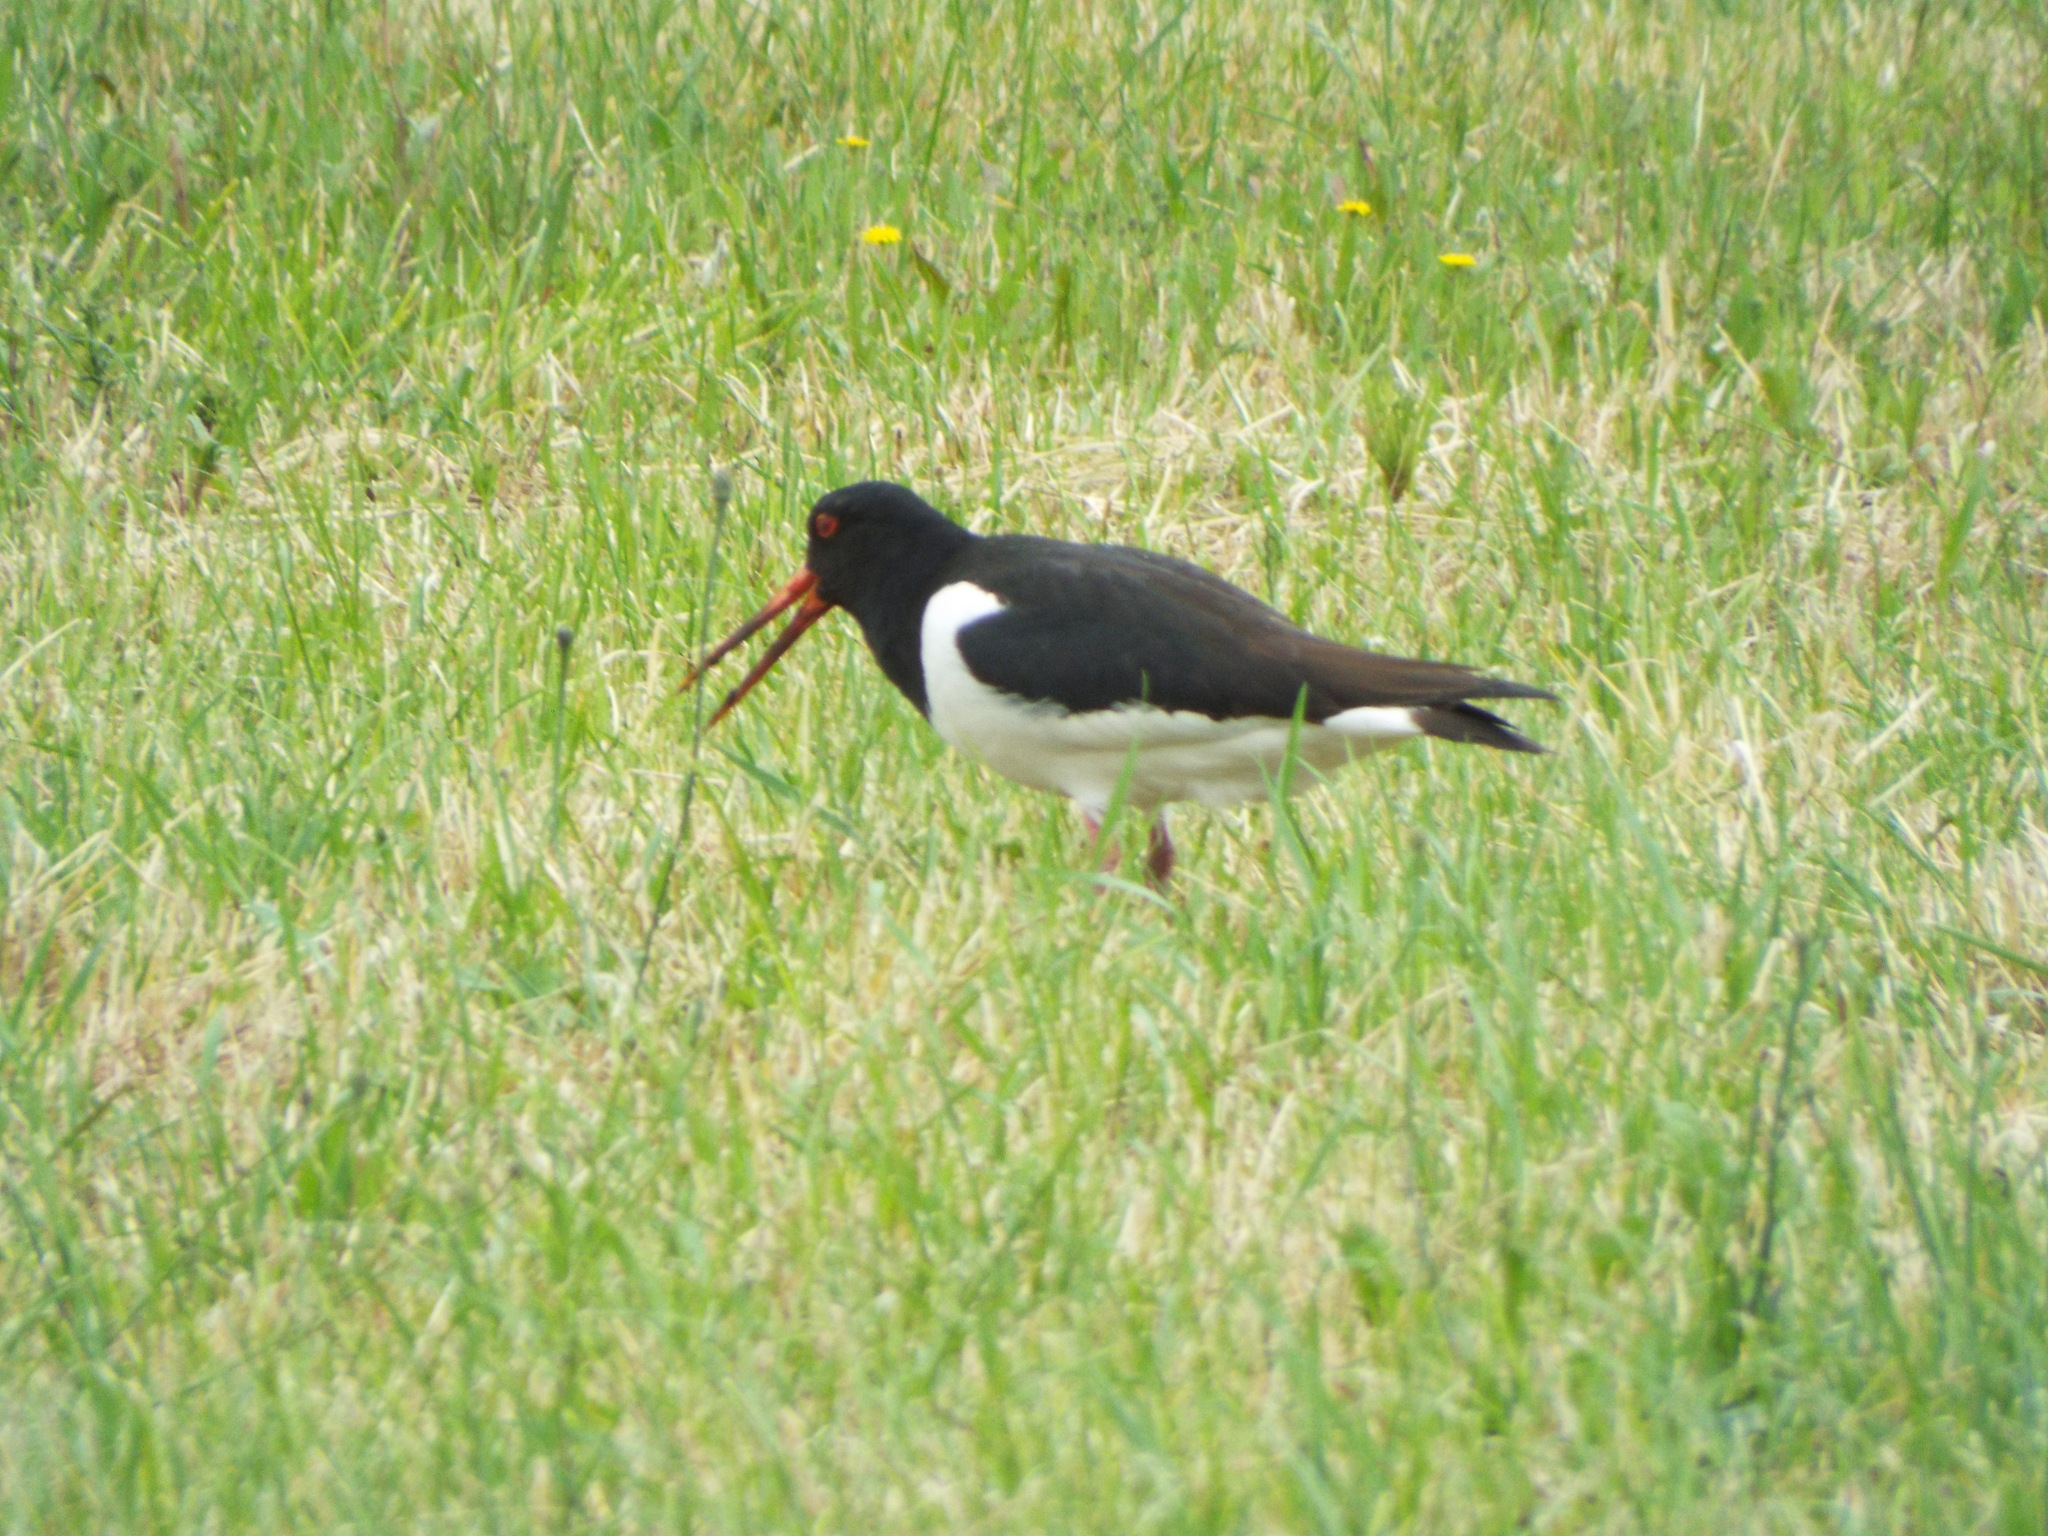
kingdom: Animalia
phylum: Chordata
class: Aves
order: Charadriiformes
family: Haematopodidae
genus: Haematopus
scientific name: Haematopus ostralegus
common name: Eurasian oystercatcher
